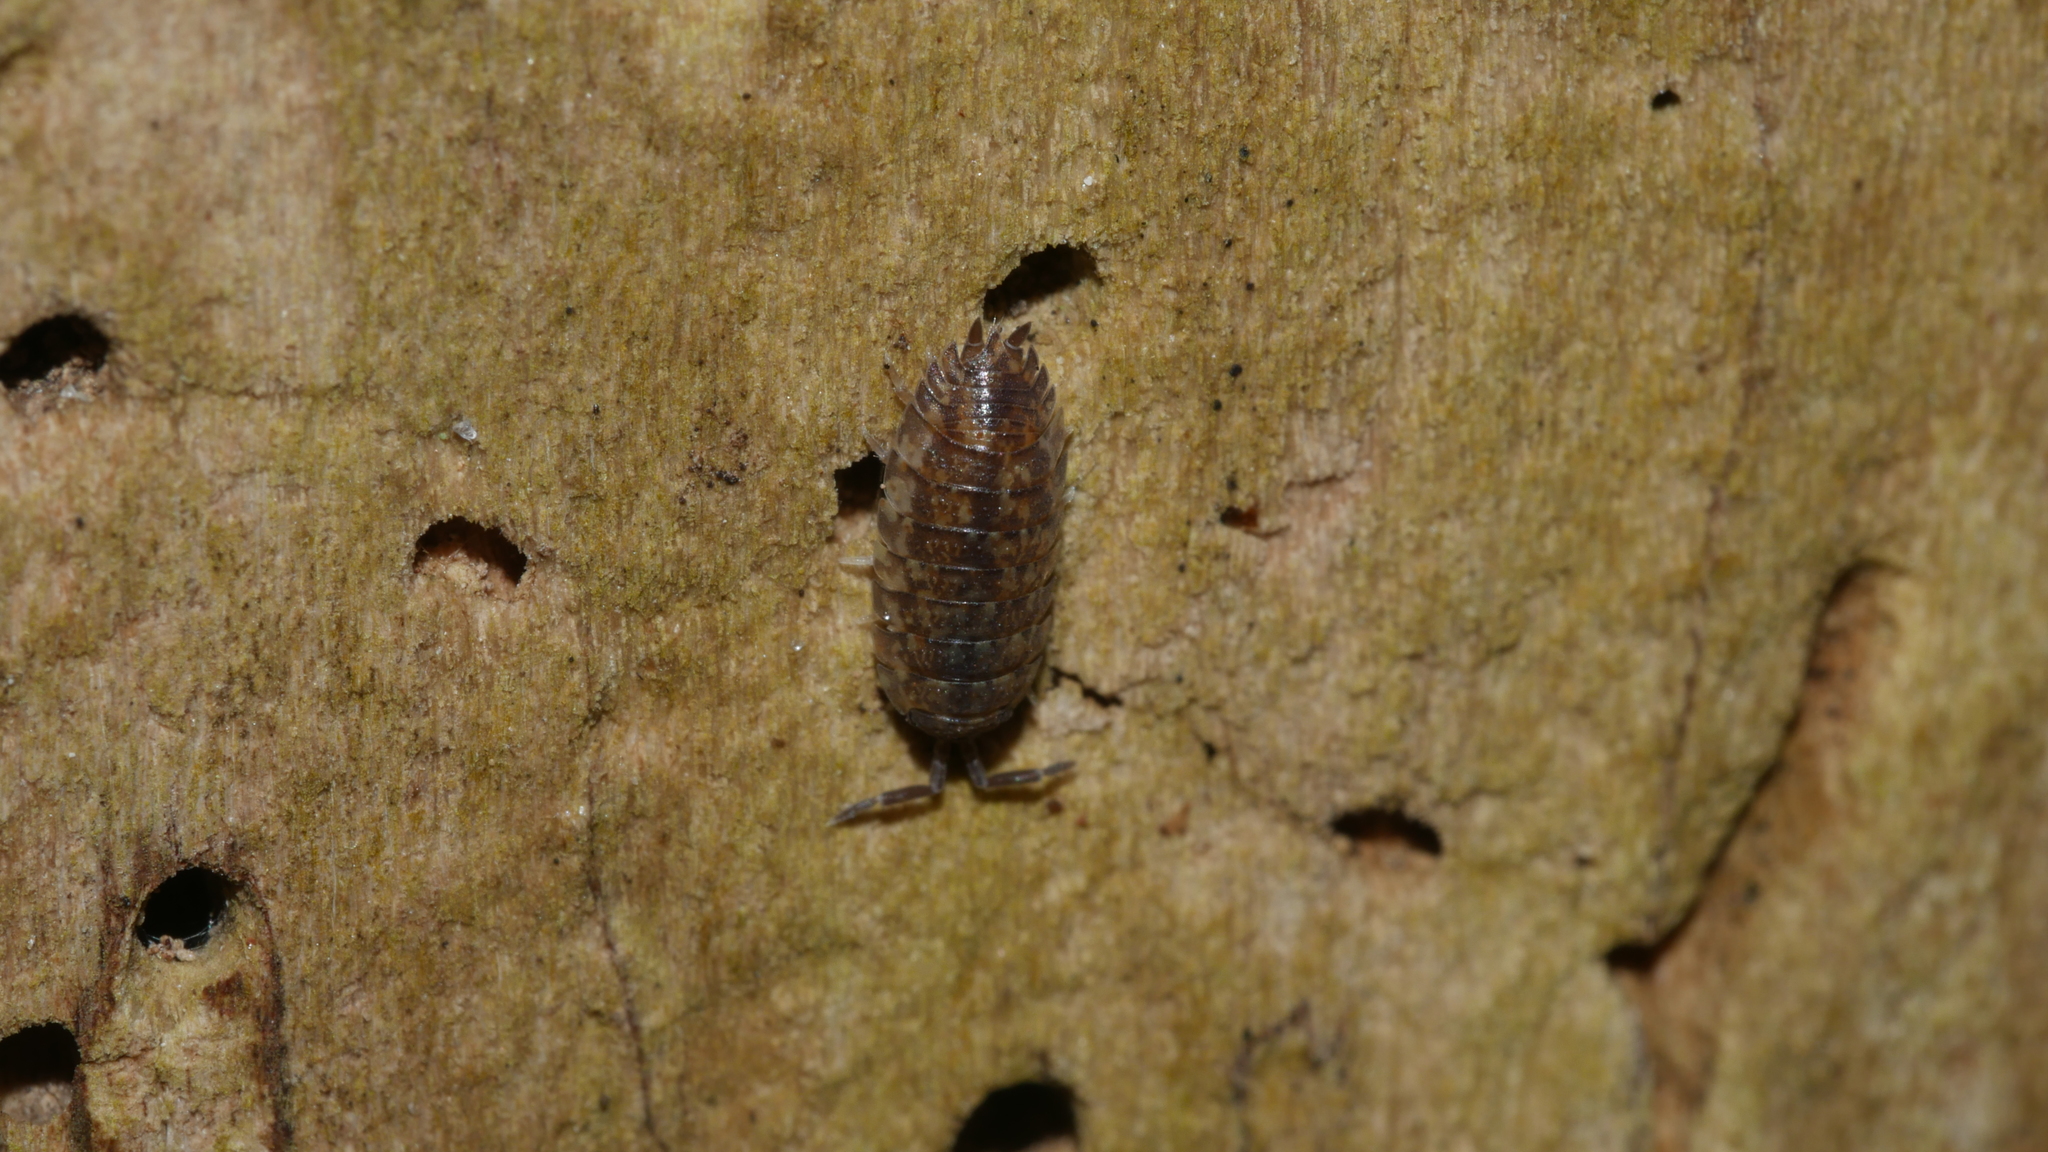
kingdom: Animalia
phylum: Arthropoda
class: Malacostraca
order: Isopoda
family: Porcellionidae
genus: Porcellio
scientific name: Porcellio scaber
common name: Common rough woodlouse
